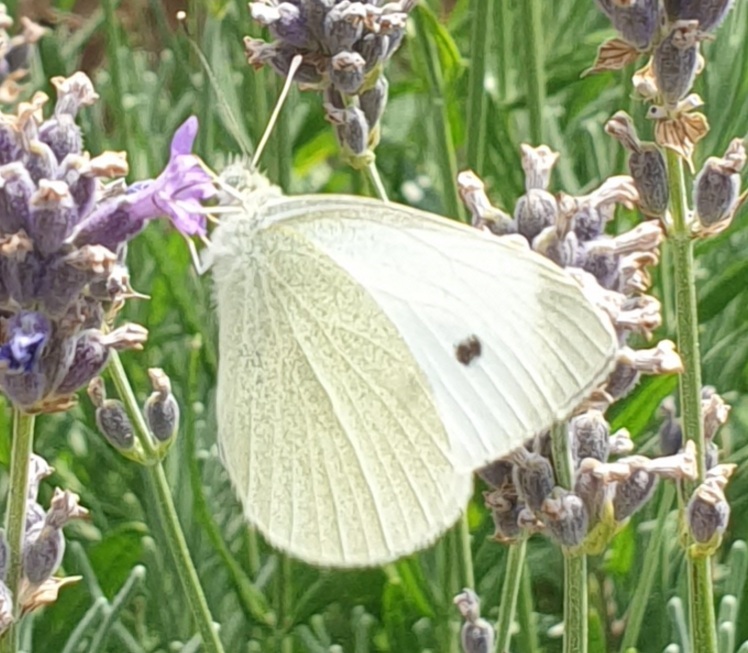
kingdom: Animalia
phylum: Arthropoda
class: Insecta
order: Lepidoptera
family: Pieridae
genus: Pieris
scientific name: Pieris rapae
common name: Small white
